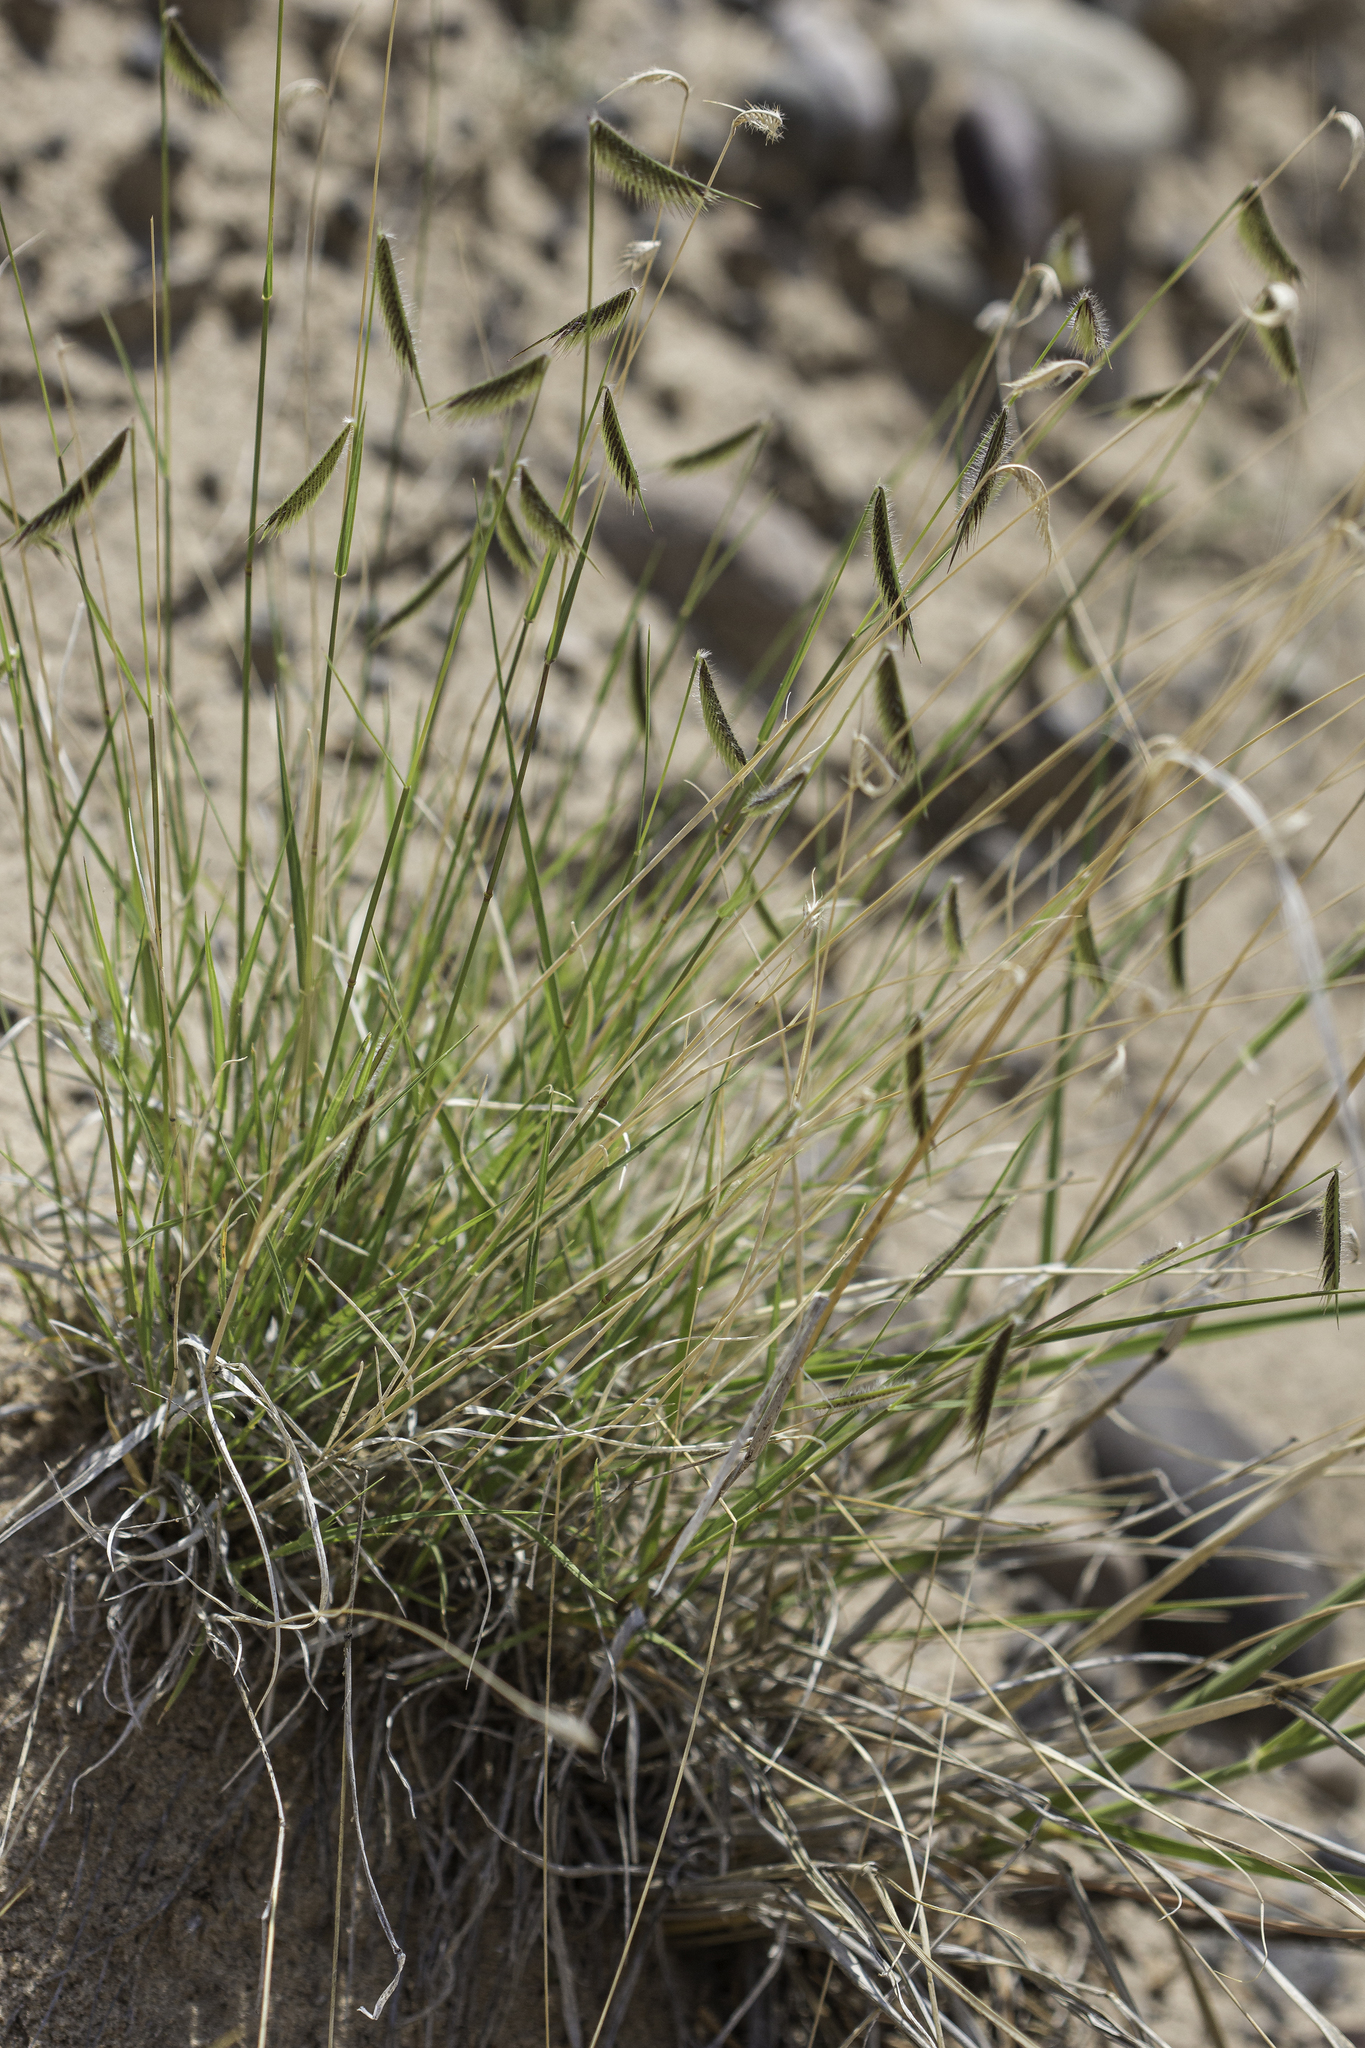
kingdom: Plantae
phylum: Tracheophyta
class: Liliopsida
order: Poales
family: Poaceae
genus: Bouteloua
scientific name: Bouteloua hirsuta
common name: Hairy grama
